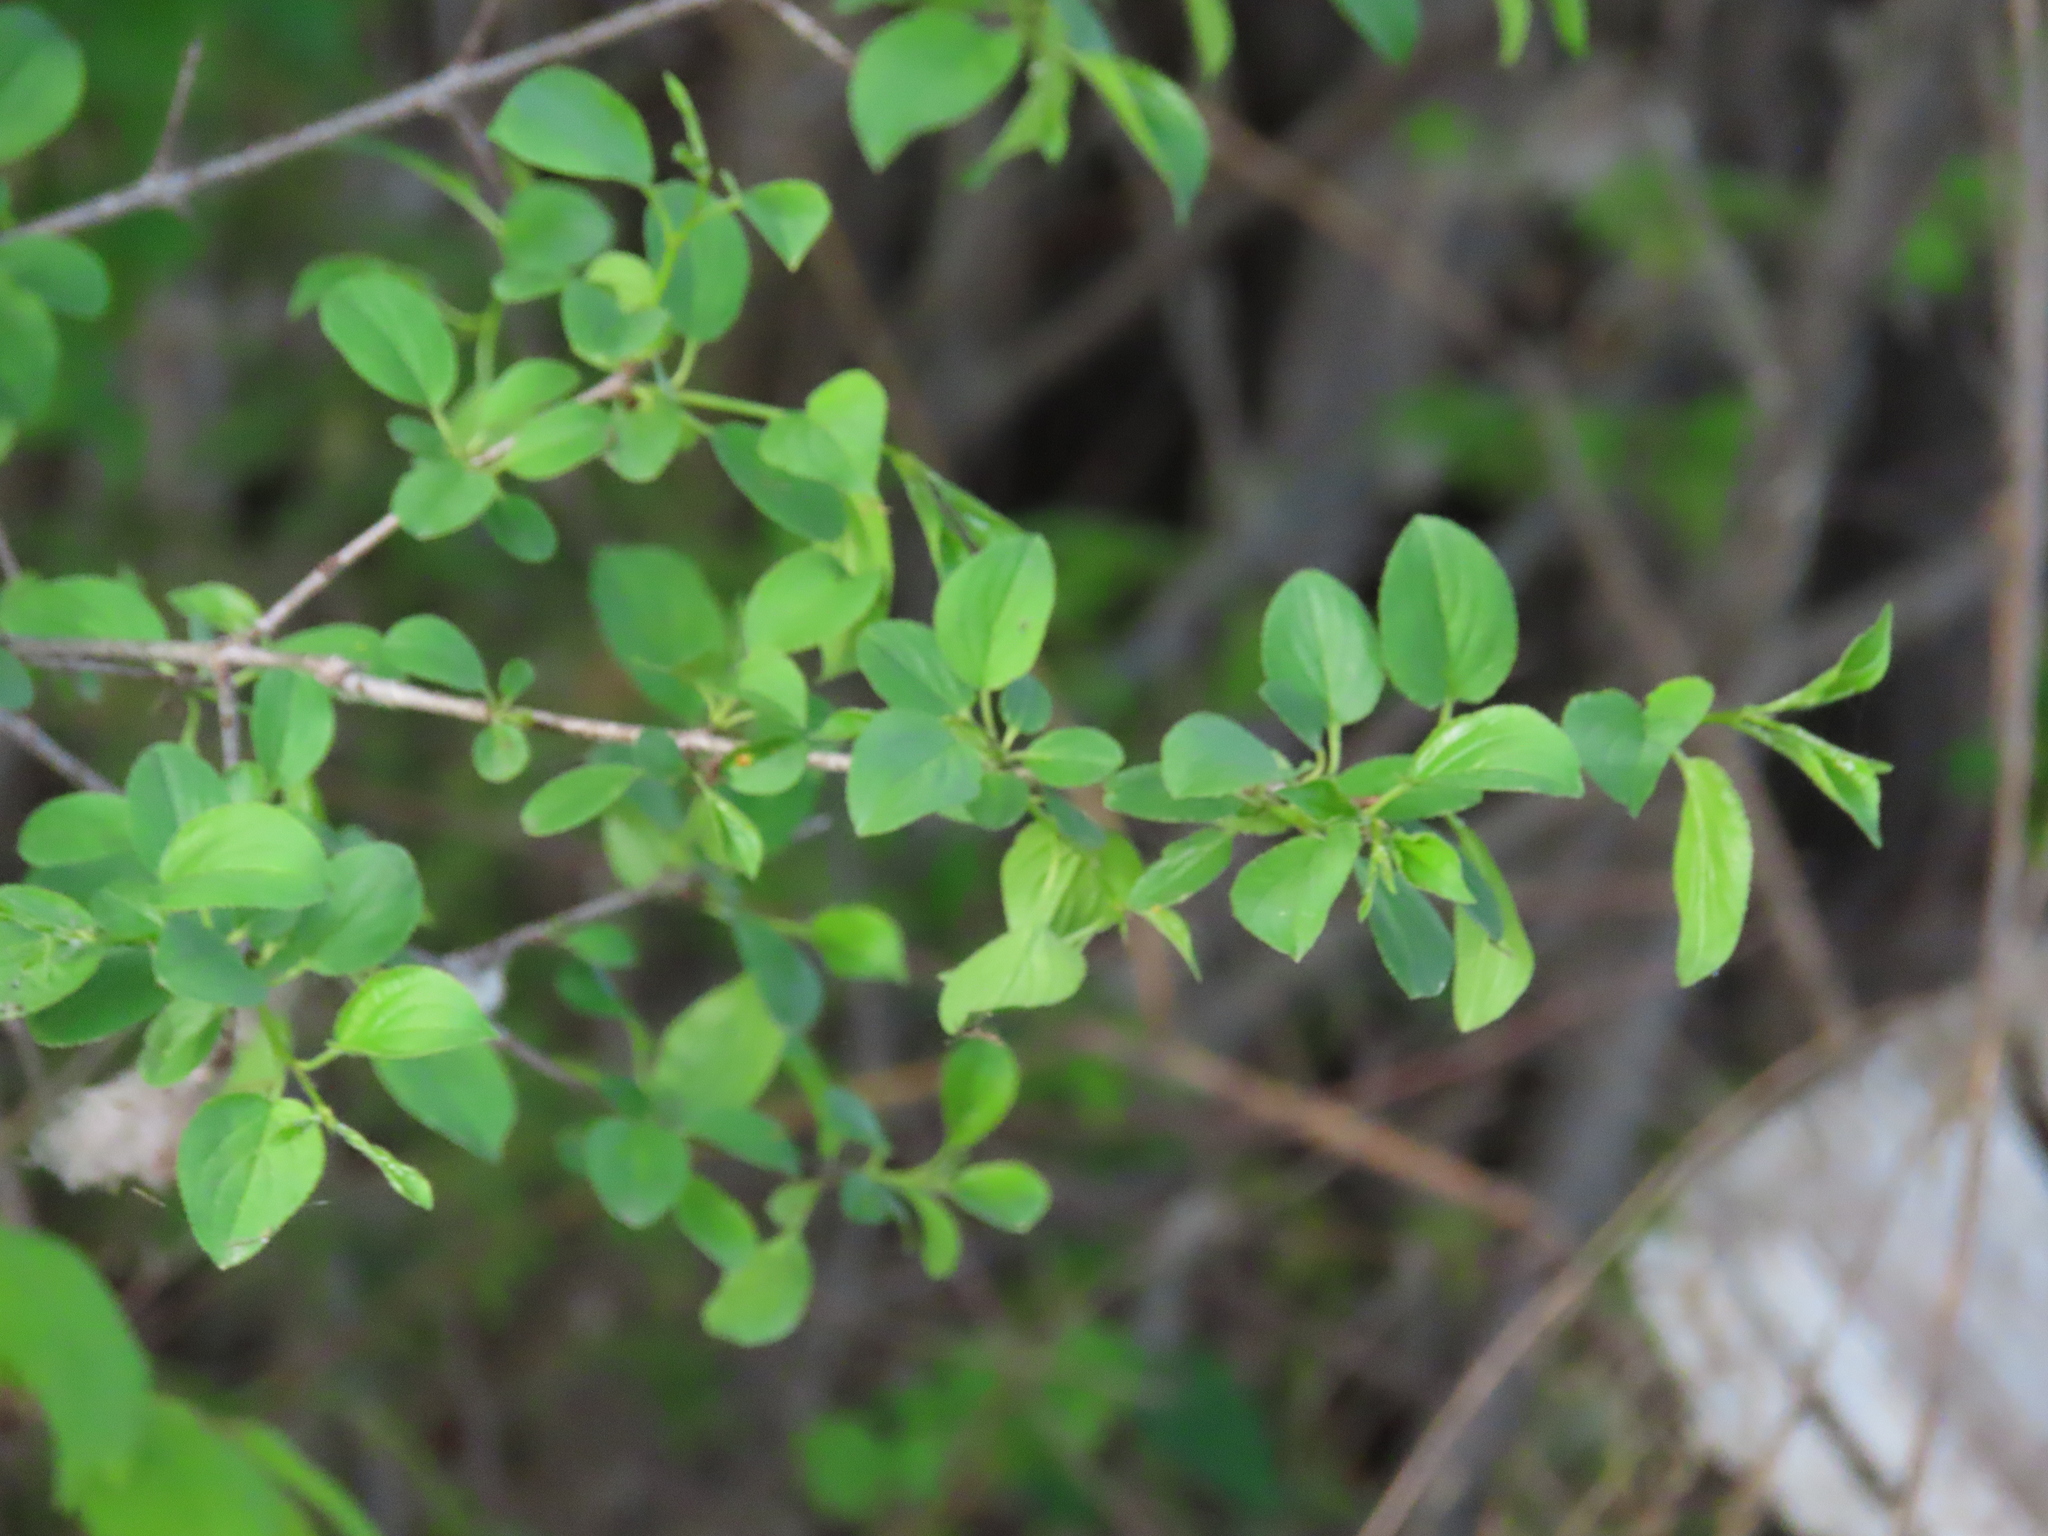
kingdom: Plantae
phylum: Tracheophyta
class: Magnoliopsida
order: Rosales
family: Rhamnaceae
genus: Rhamnus
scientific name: Rhamnus cathartica
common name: Common buckthorn
